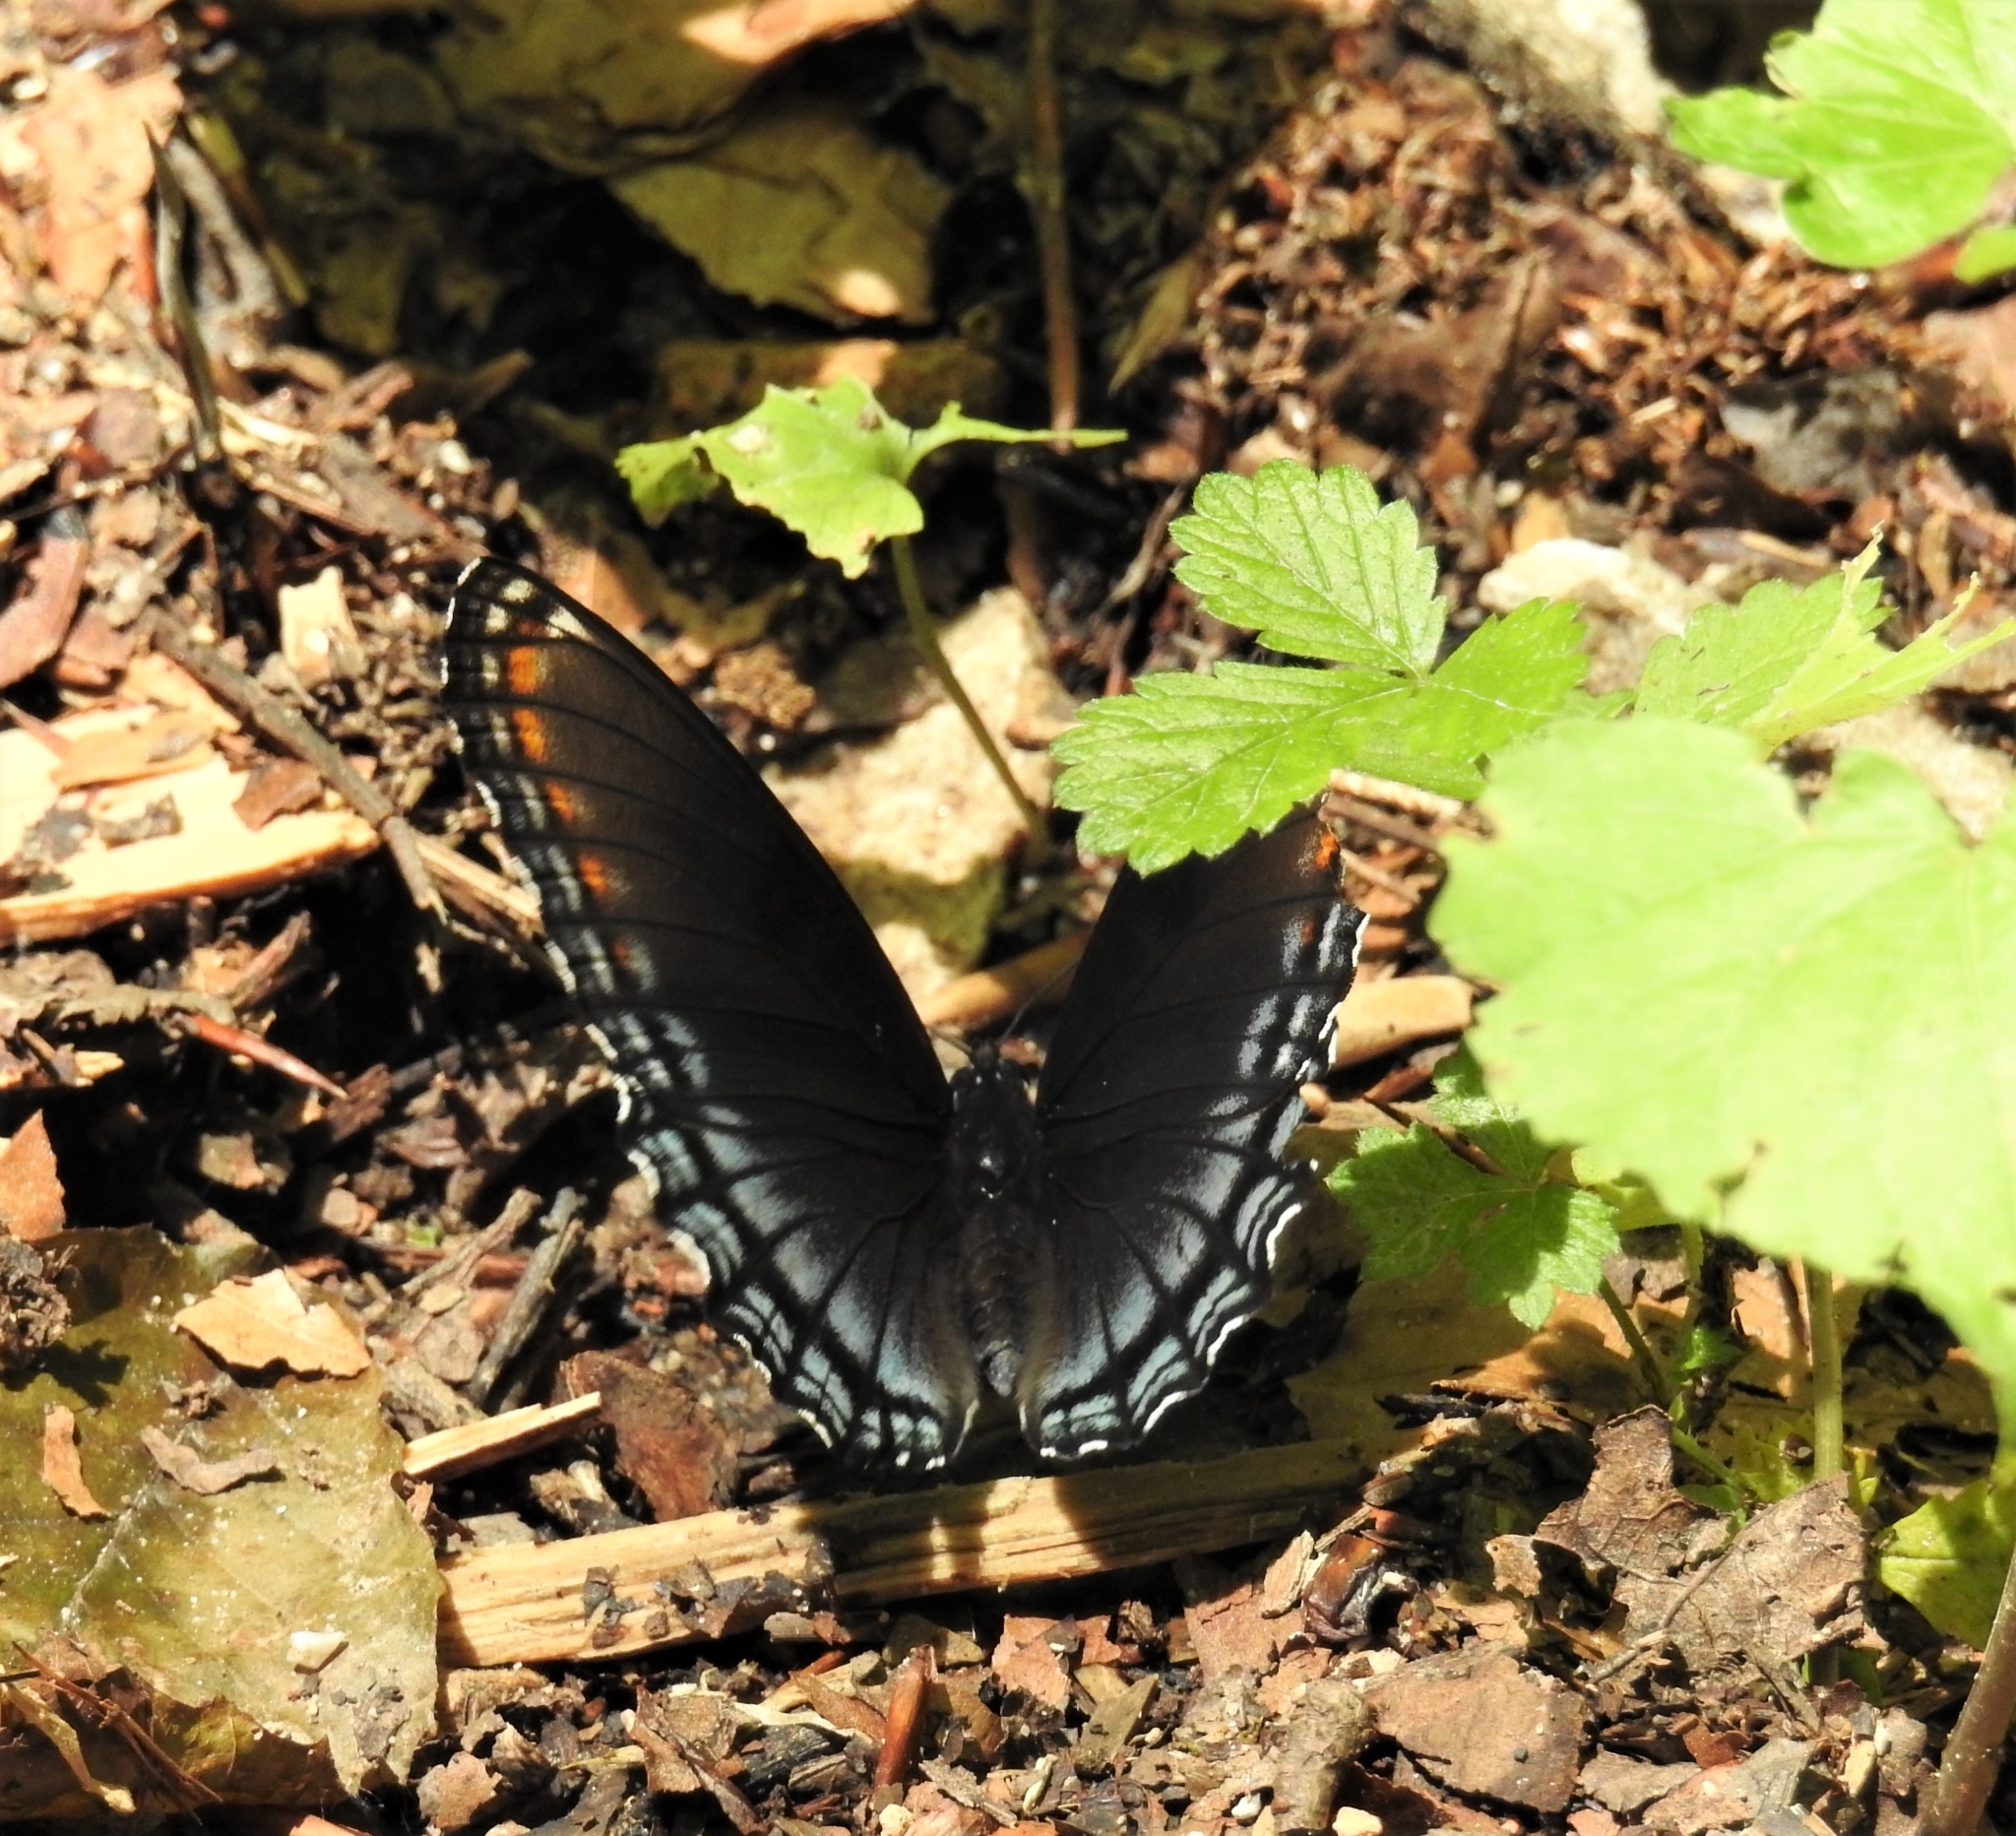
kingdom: Animalia
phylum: Arthropoda
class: Insecta
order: Lepidoptera
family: Nymphalidae
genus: Limenitis
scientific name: Limenitis astyanax
